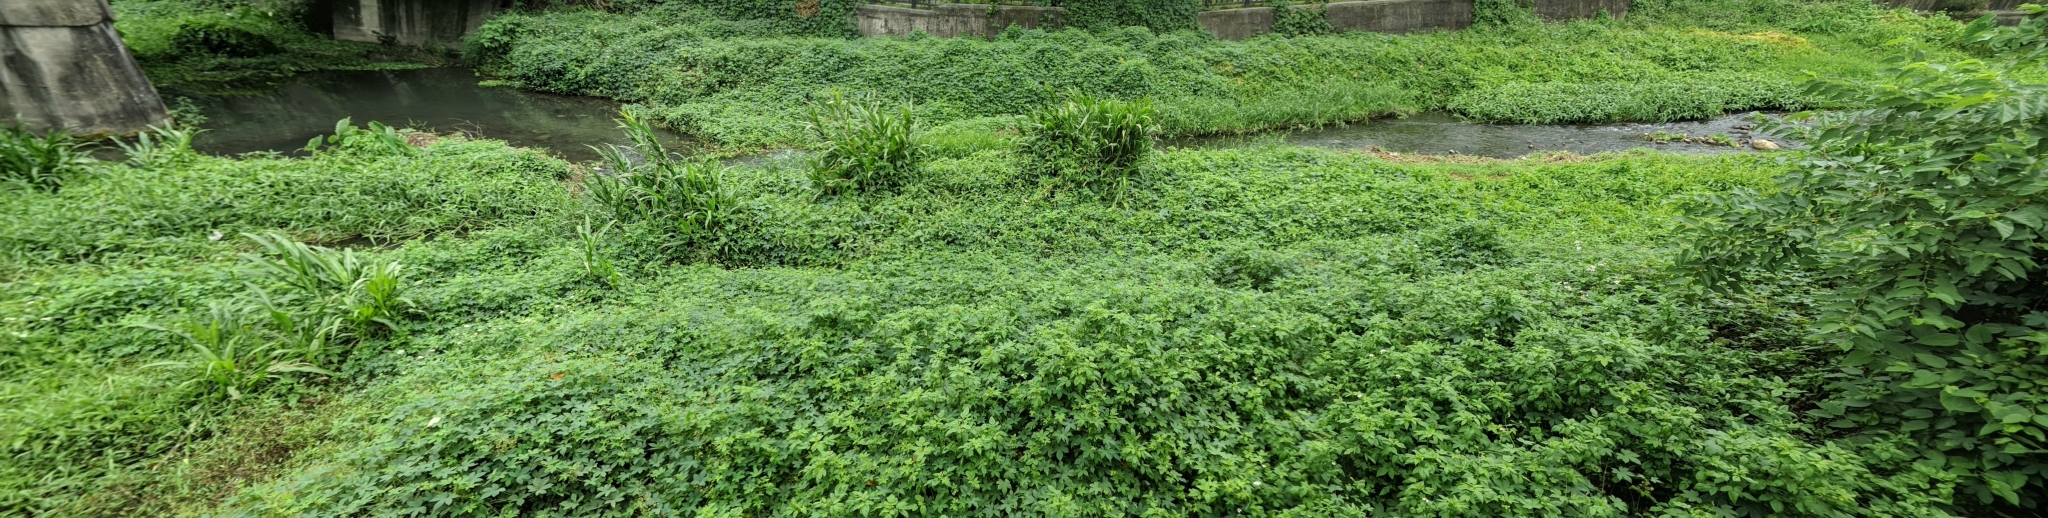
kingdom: Plantae
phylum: Tracheophyta
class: Magnoliopsida
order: Rosales
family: Cannabaceae
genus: Humulus
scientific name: Humulus scandens
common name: Japanese hop
